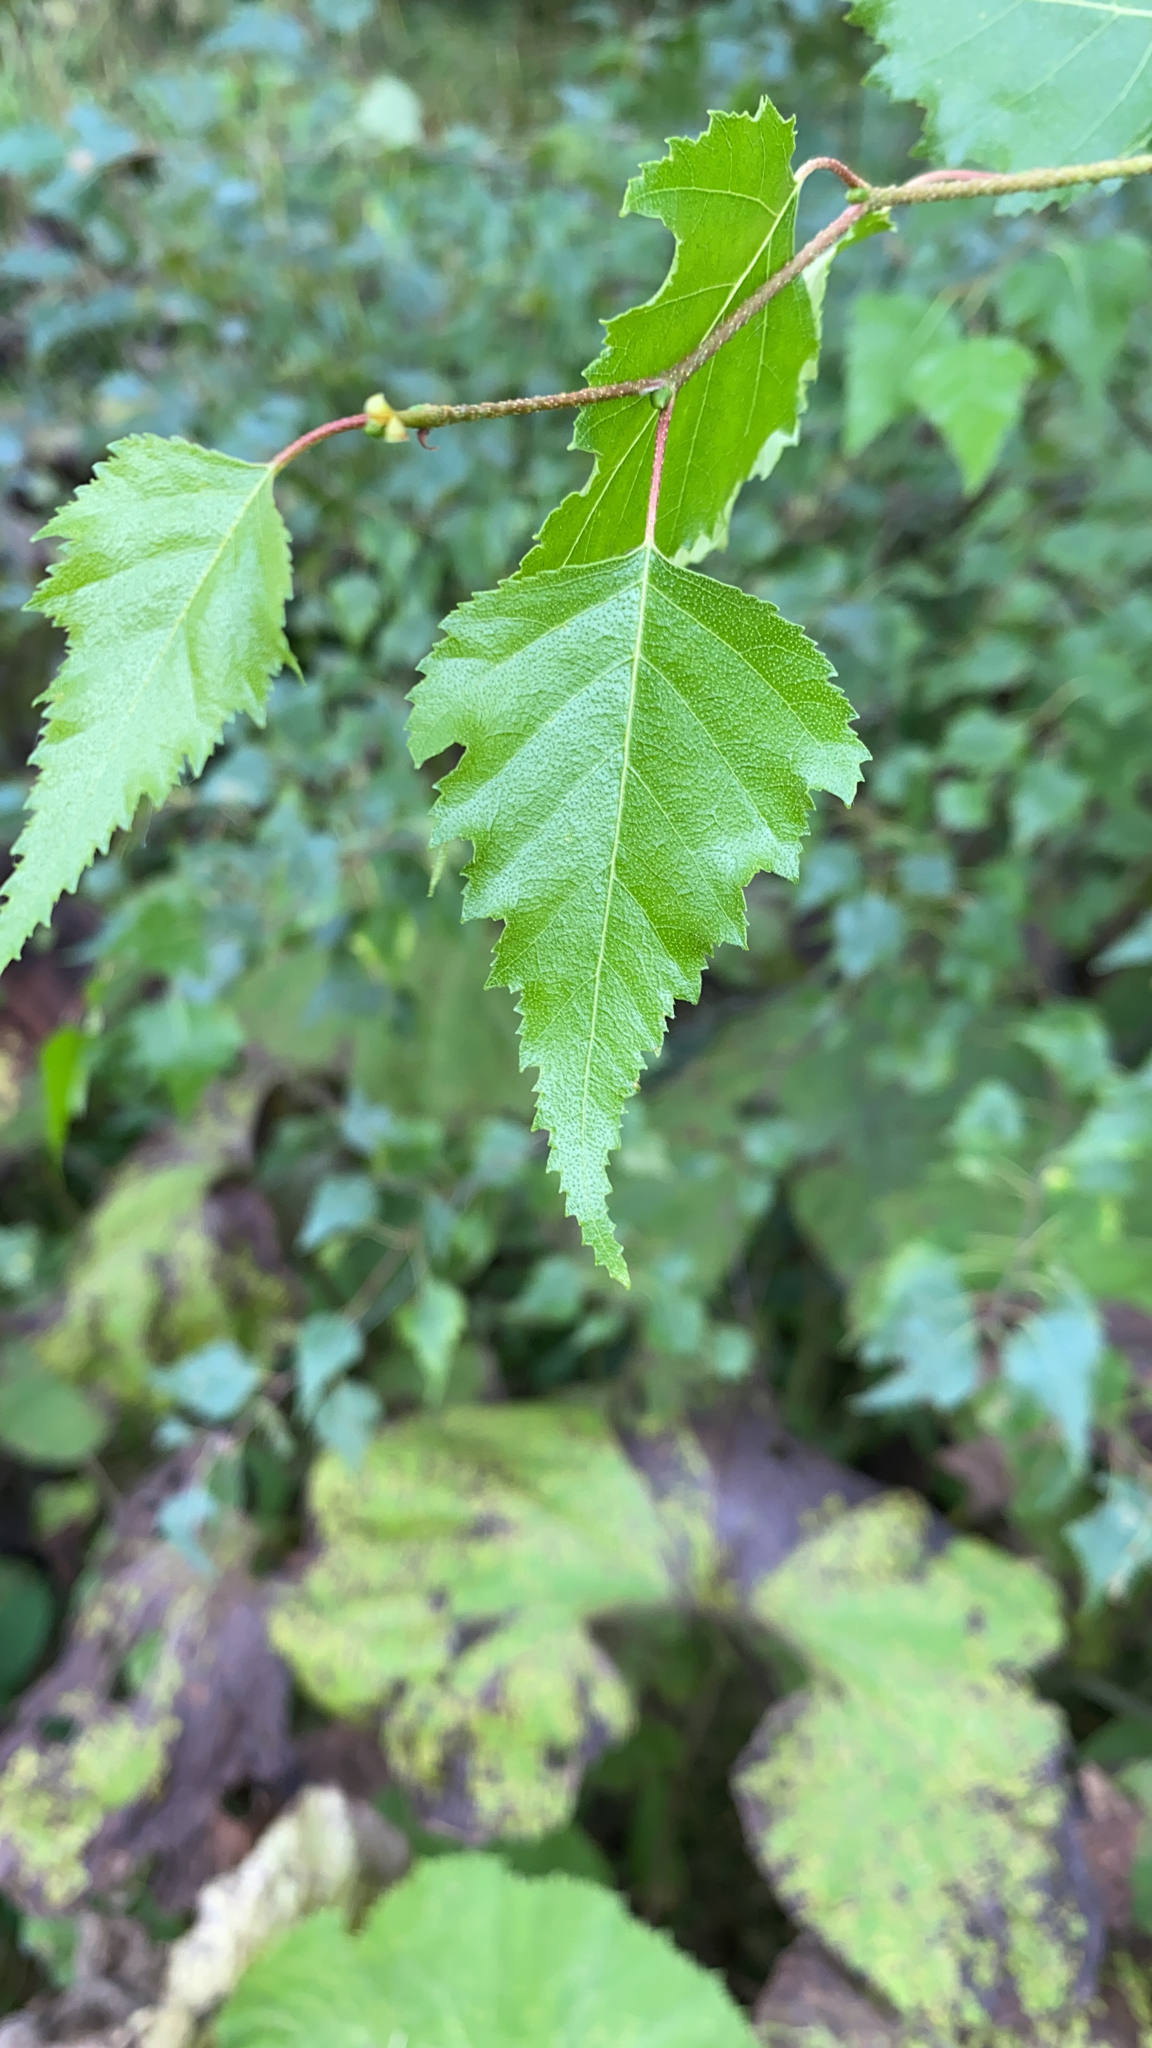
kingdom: Plantae
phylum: Tracheophyta
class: Magnoliopsida
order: Fagales
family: Betulaceae
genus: Betula
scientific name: Betula populifolia
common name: Fire birch
